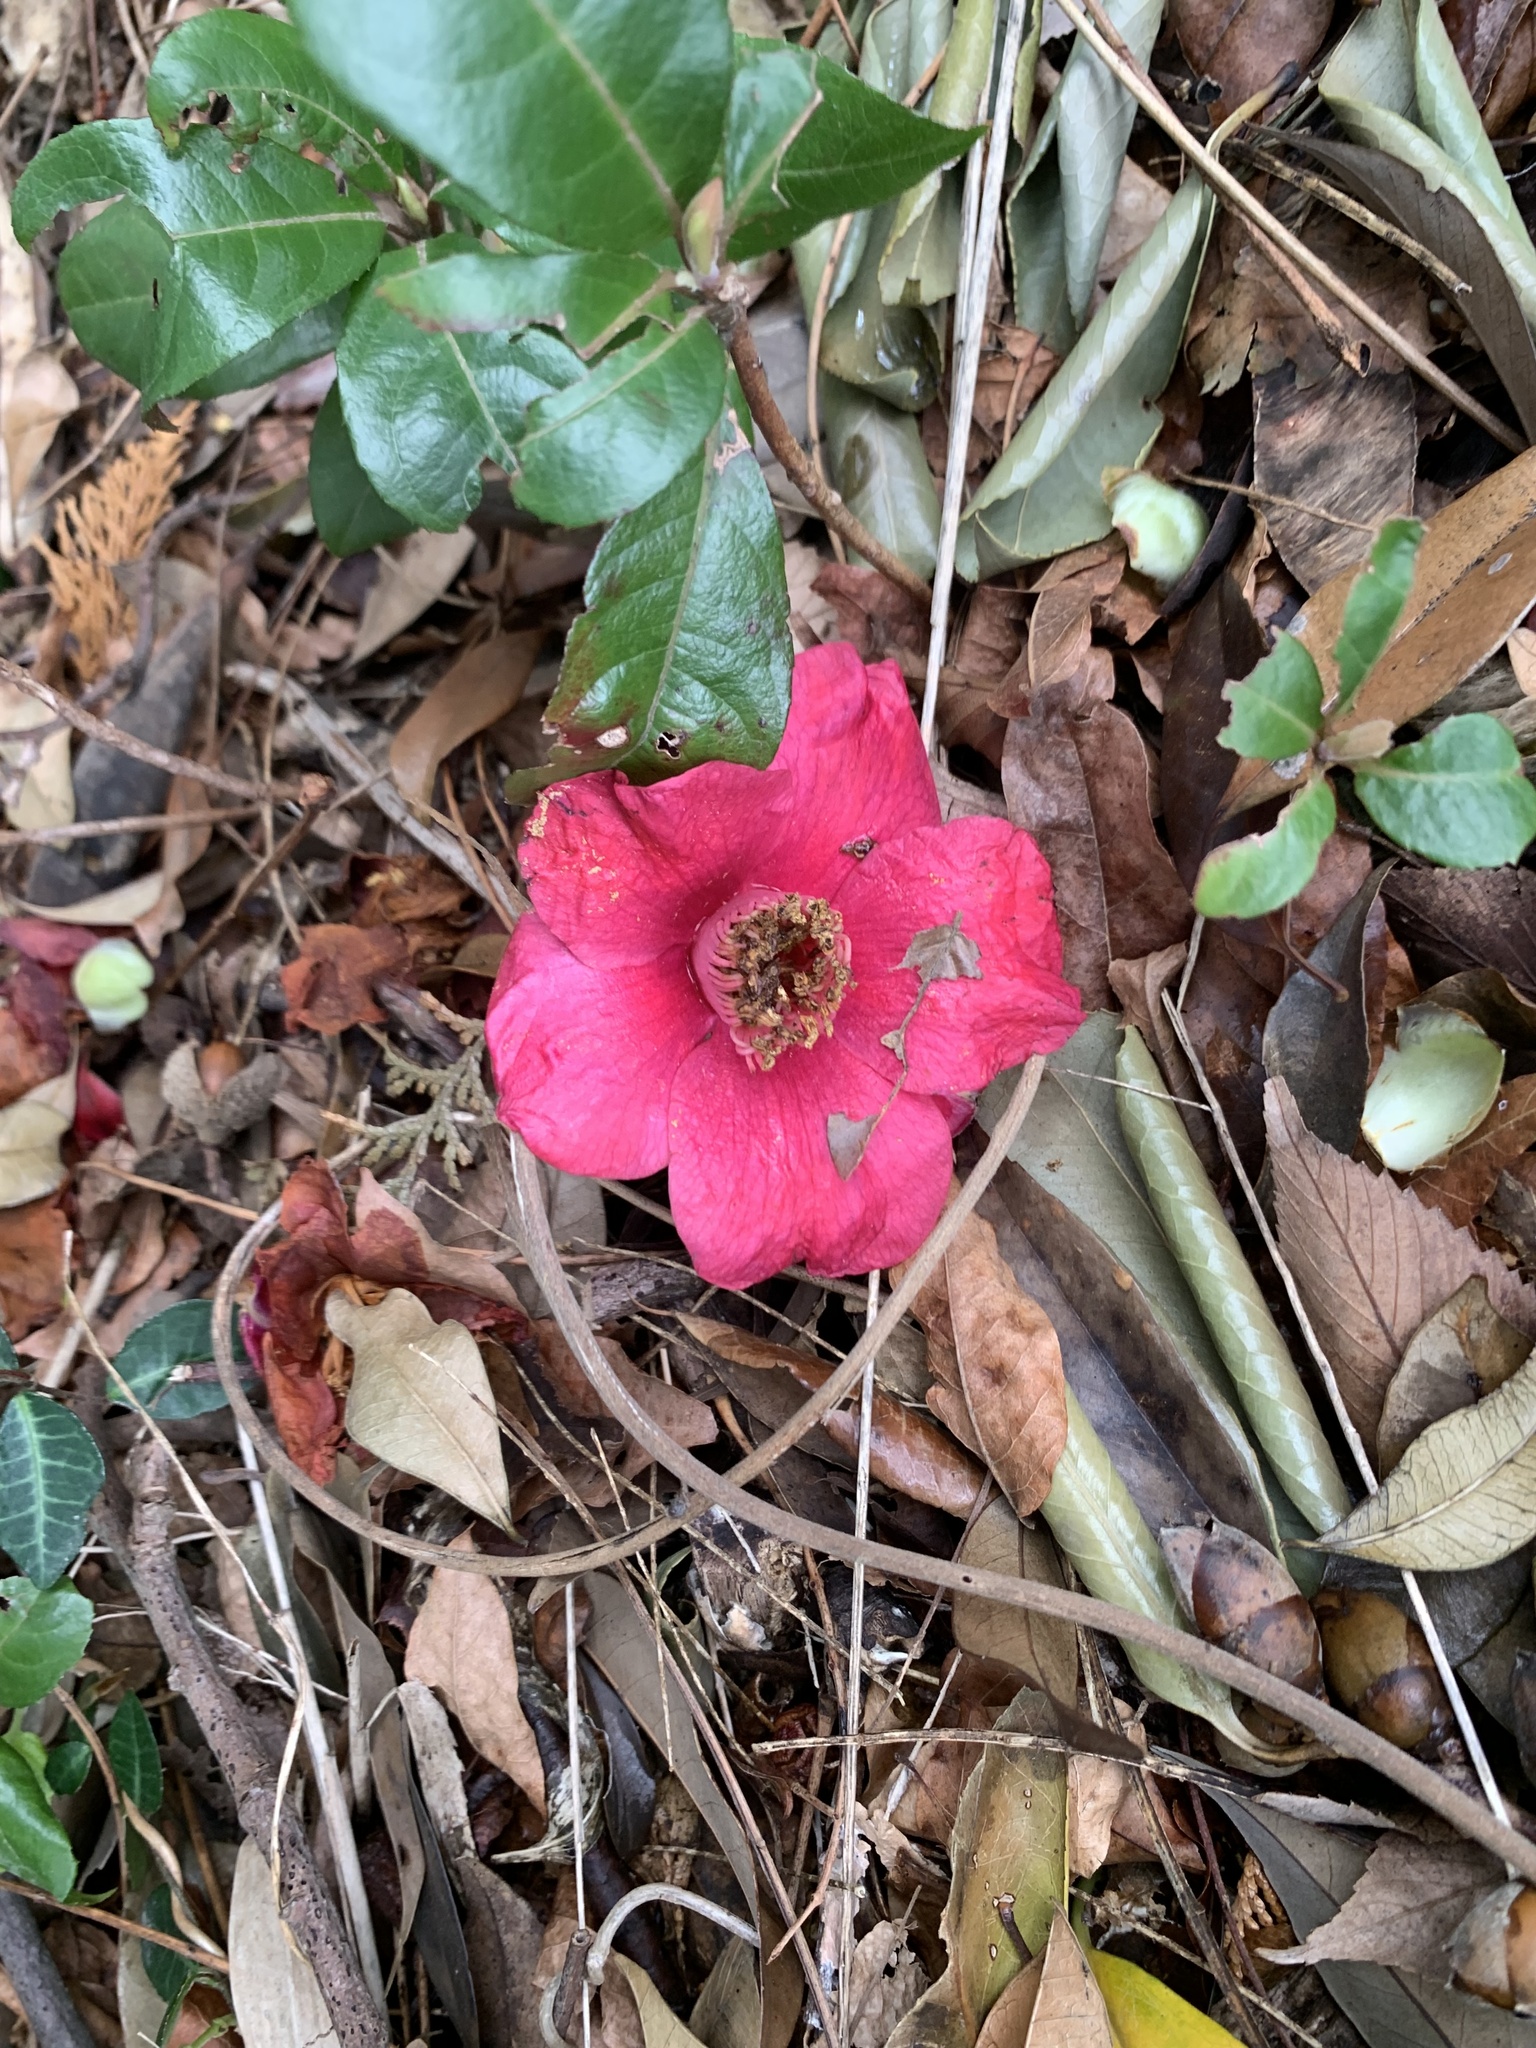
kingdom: Plantae
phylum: Tracheophyta
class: Magnoliopsida
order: Ericales
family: Theaceae
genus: Camellia
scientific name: Camellia japonica
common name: Camellia
